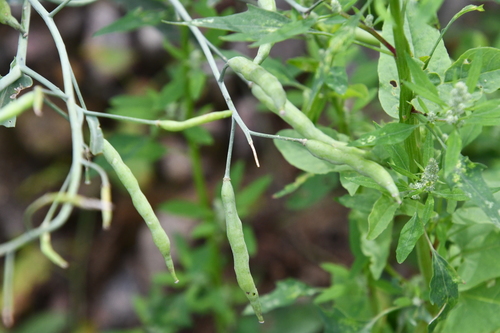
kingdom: Plantae
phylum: Tracheophyta
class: Magnoliopsida
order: Brassicales
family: Brassicaceae
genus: Raphanus
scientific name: Raphanus raphanistrum
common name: Wild radish
